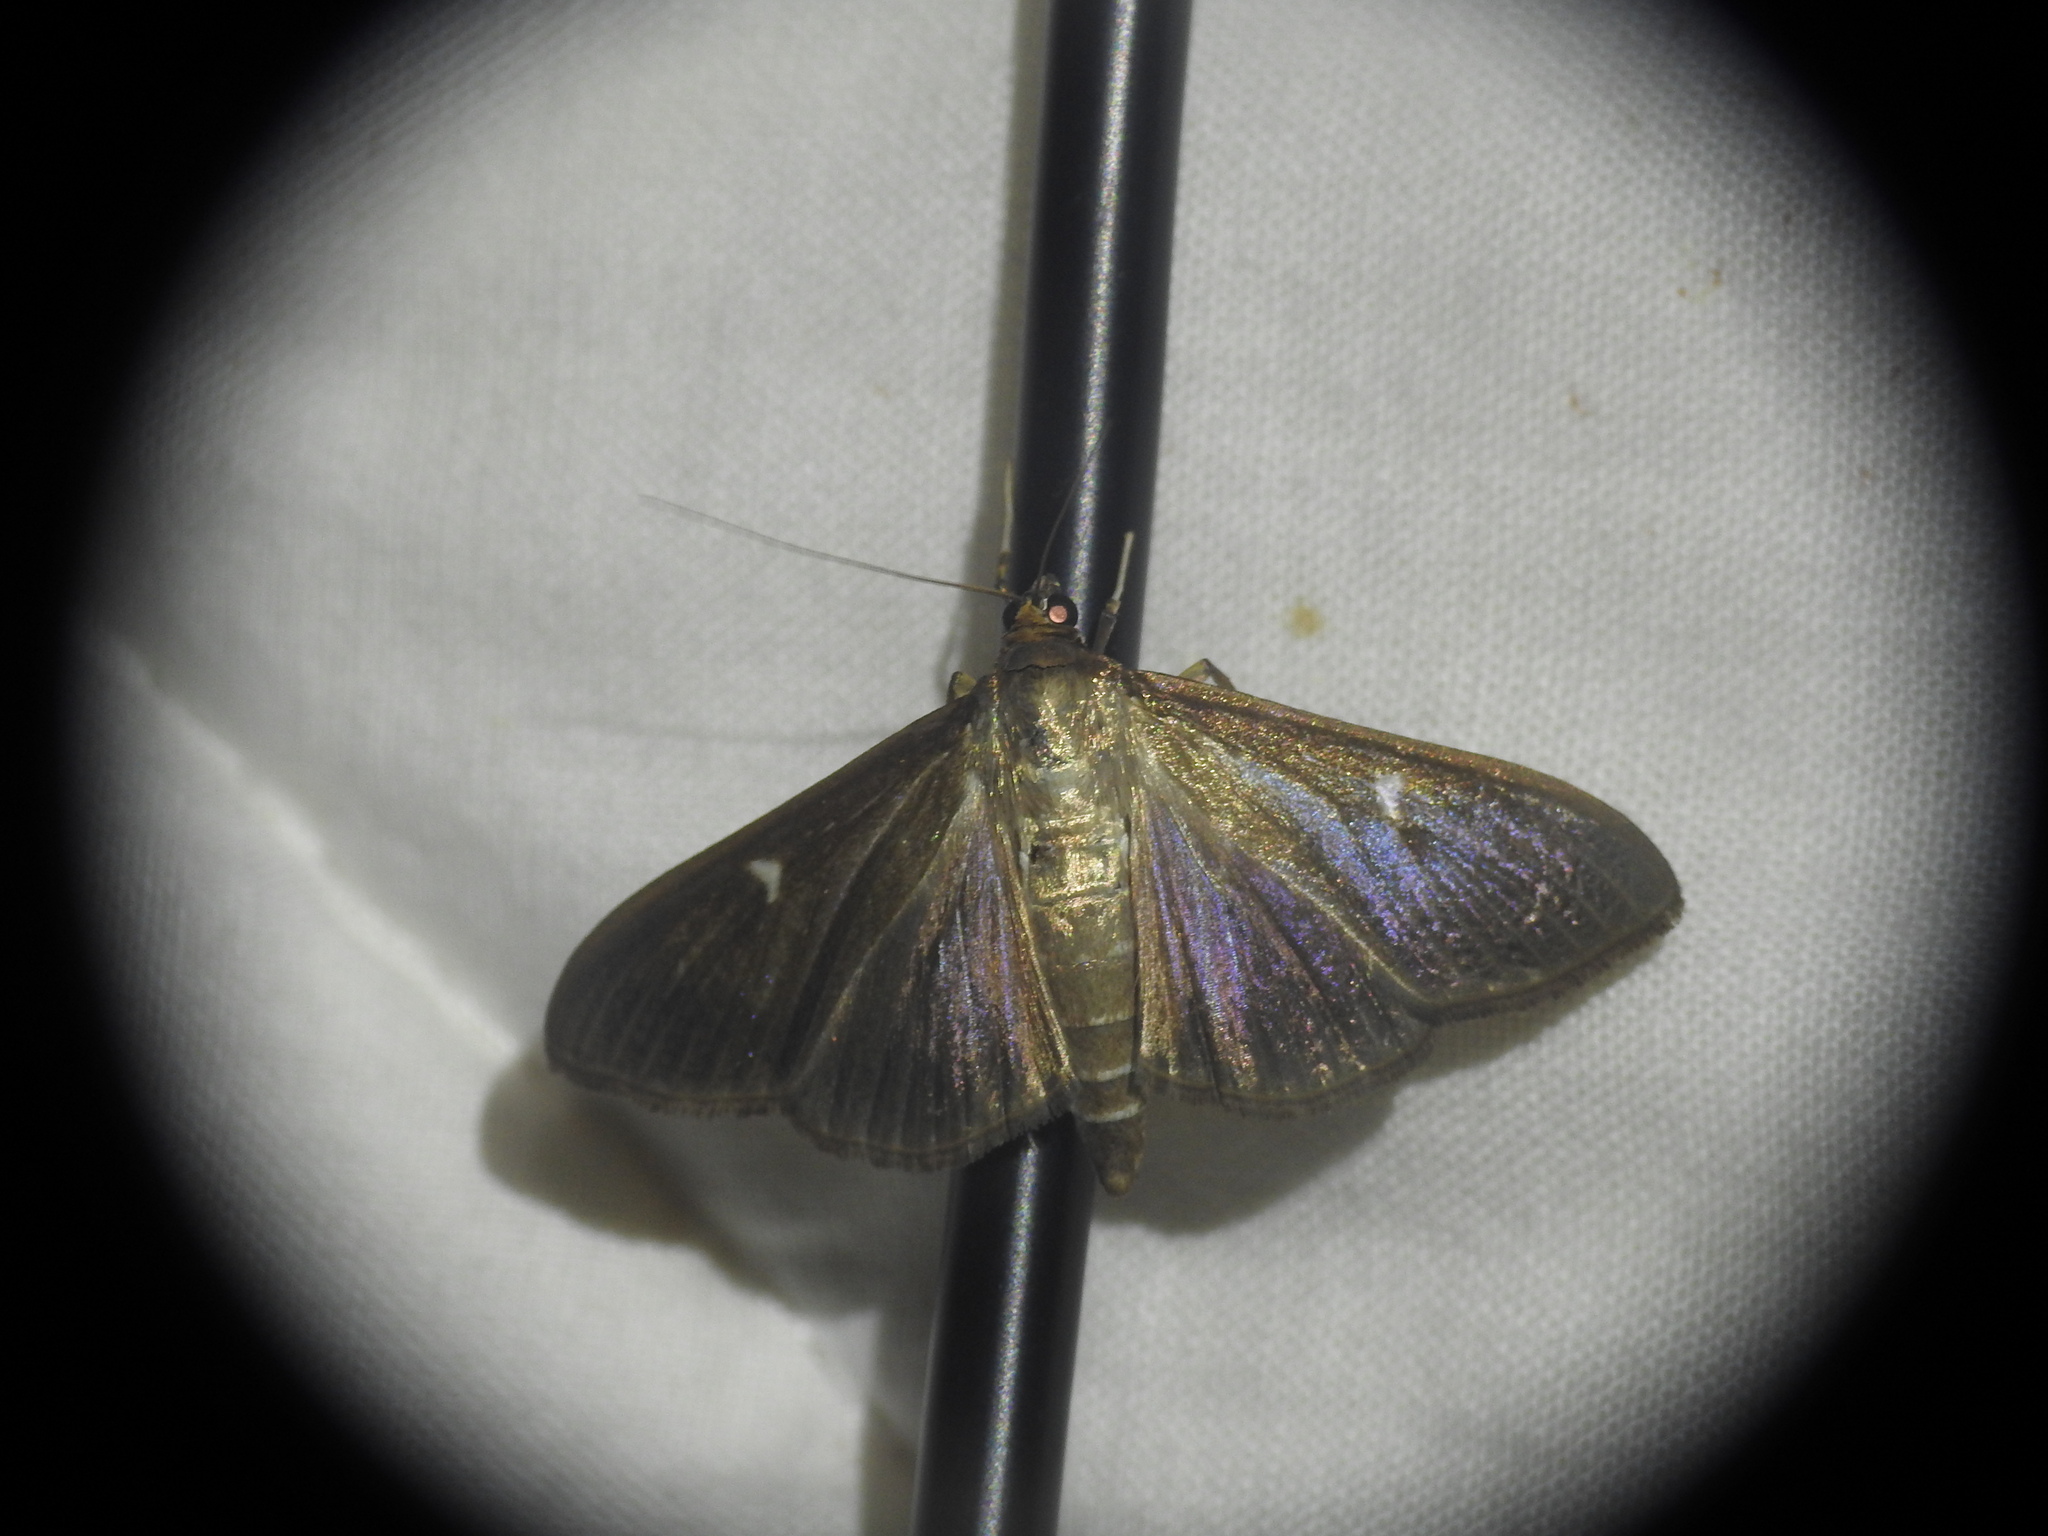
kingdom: Animalia
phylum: Arthropoda
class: Insecta
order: Lepidoptera
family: Crambidae
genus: Cydalima
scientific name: Cydalima perspectalis
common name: Box tree moth
